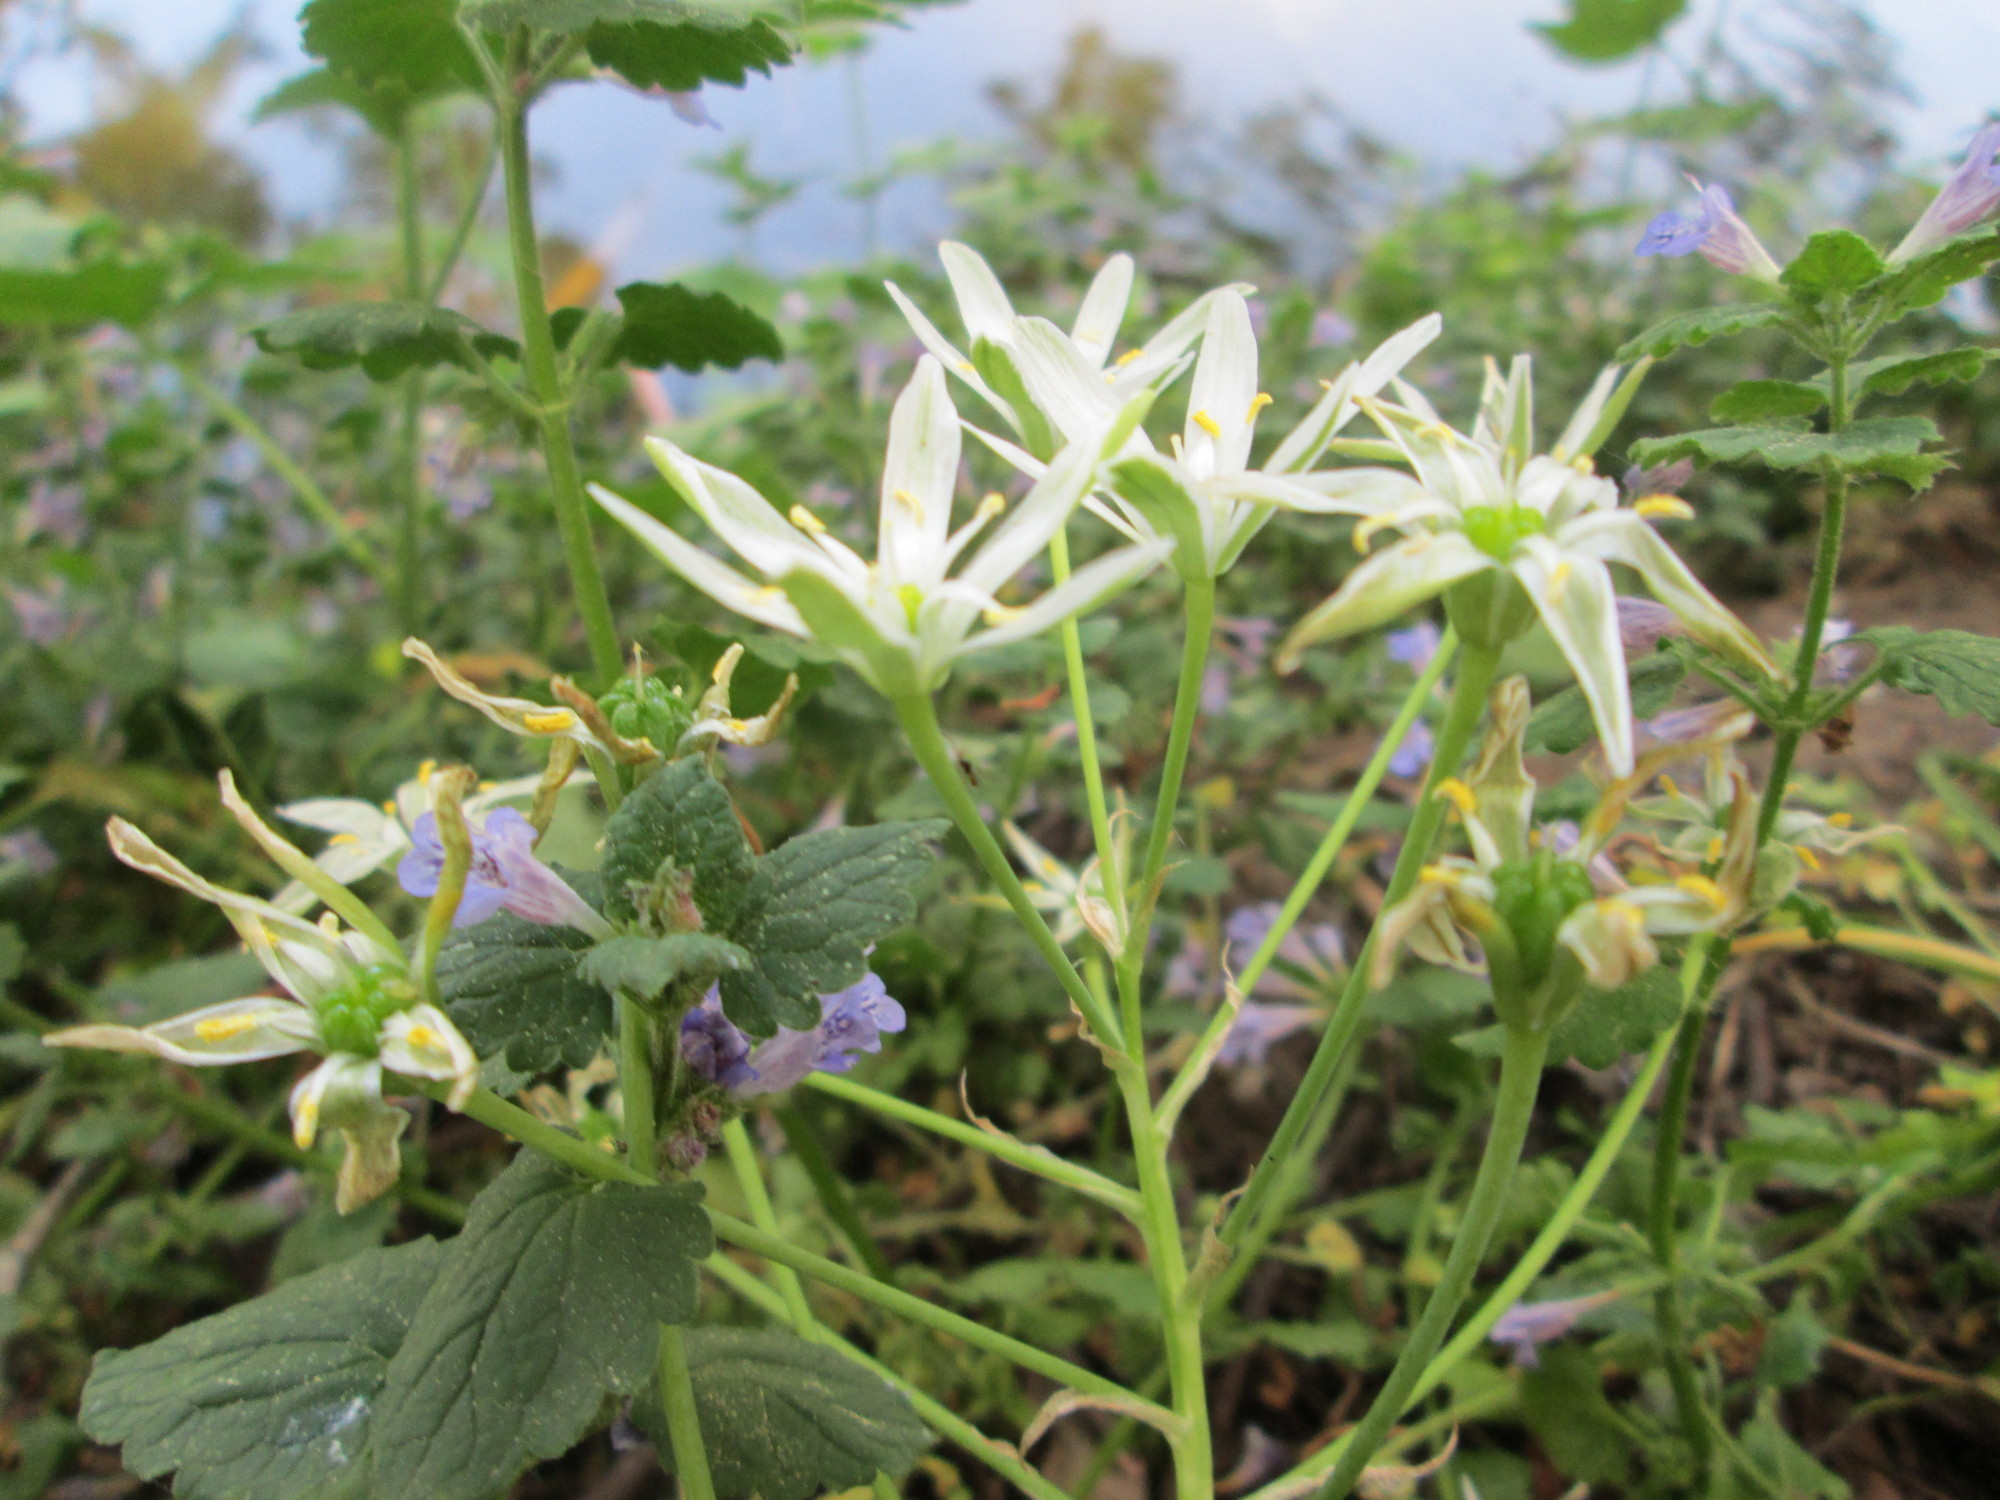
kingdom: Plantae
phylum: Tracheophyta
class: Liliopsida
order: Asparagales
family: Asparagaceae
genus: Ornithogalum
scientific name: Ornithogalum umbellatum
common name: Garden star-of-bethlehem
